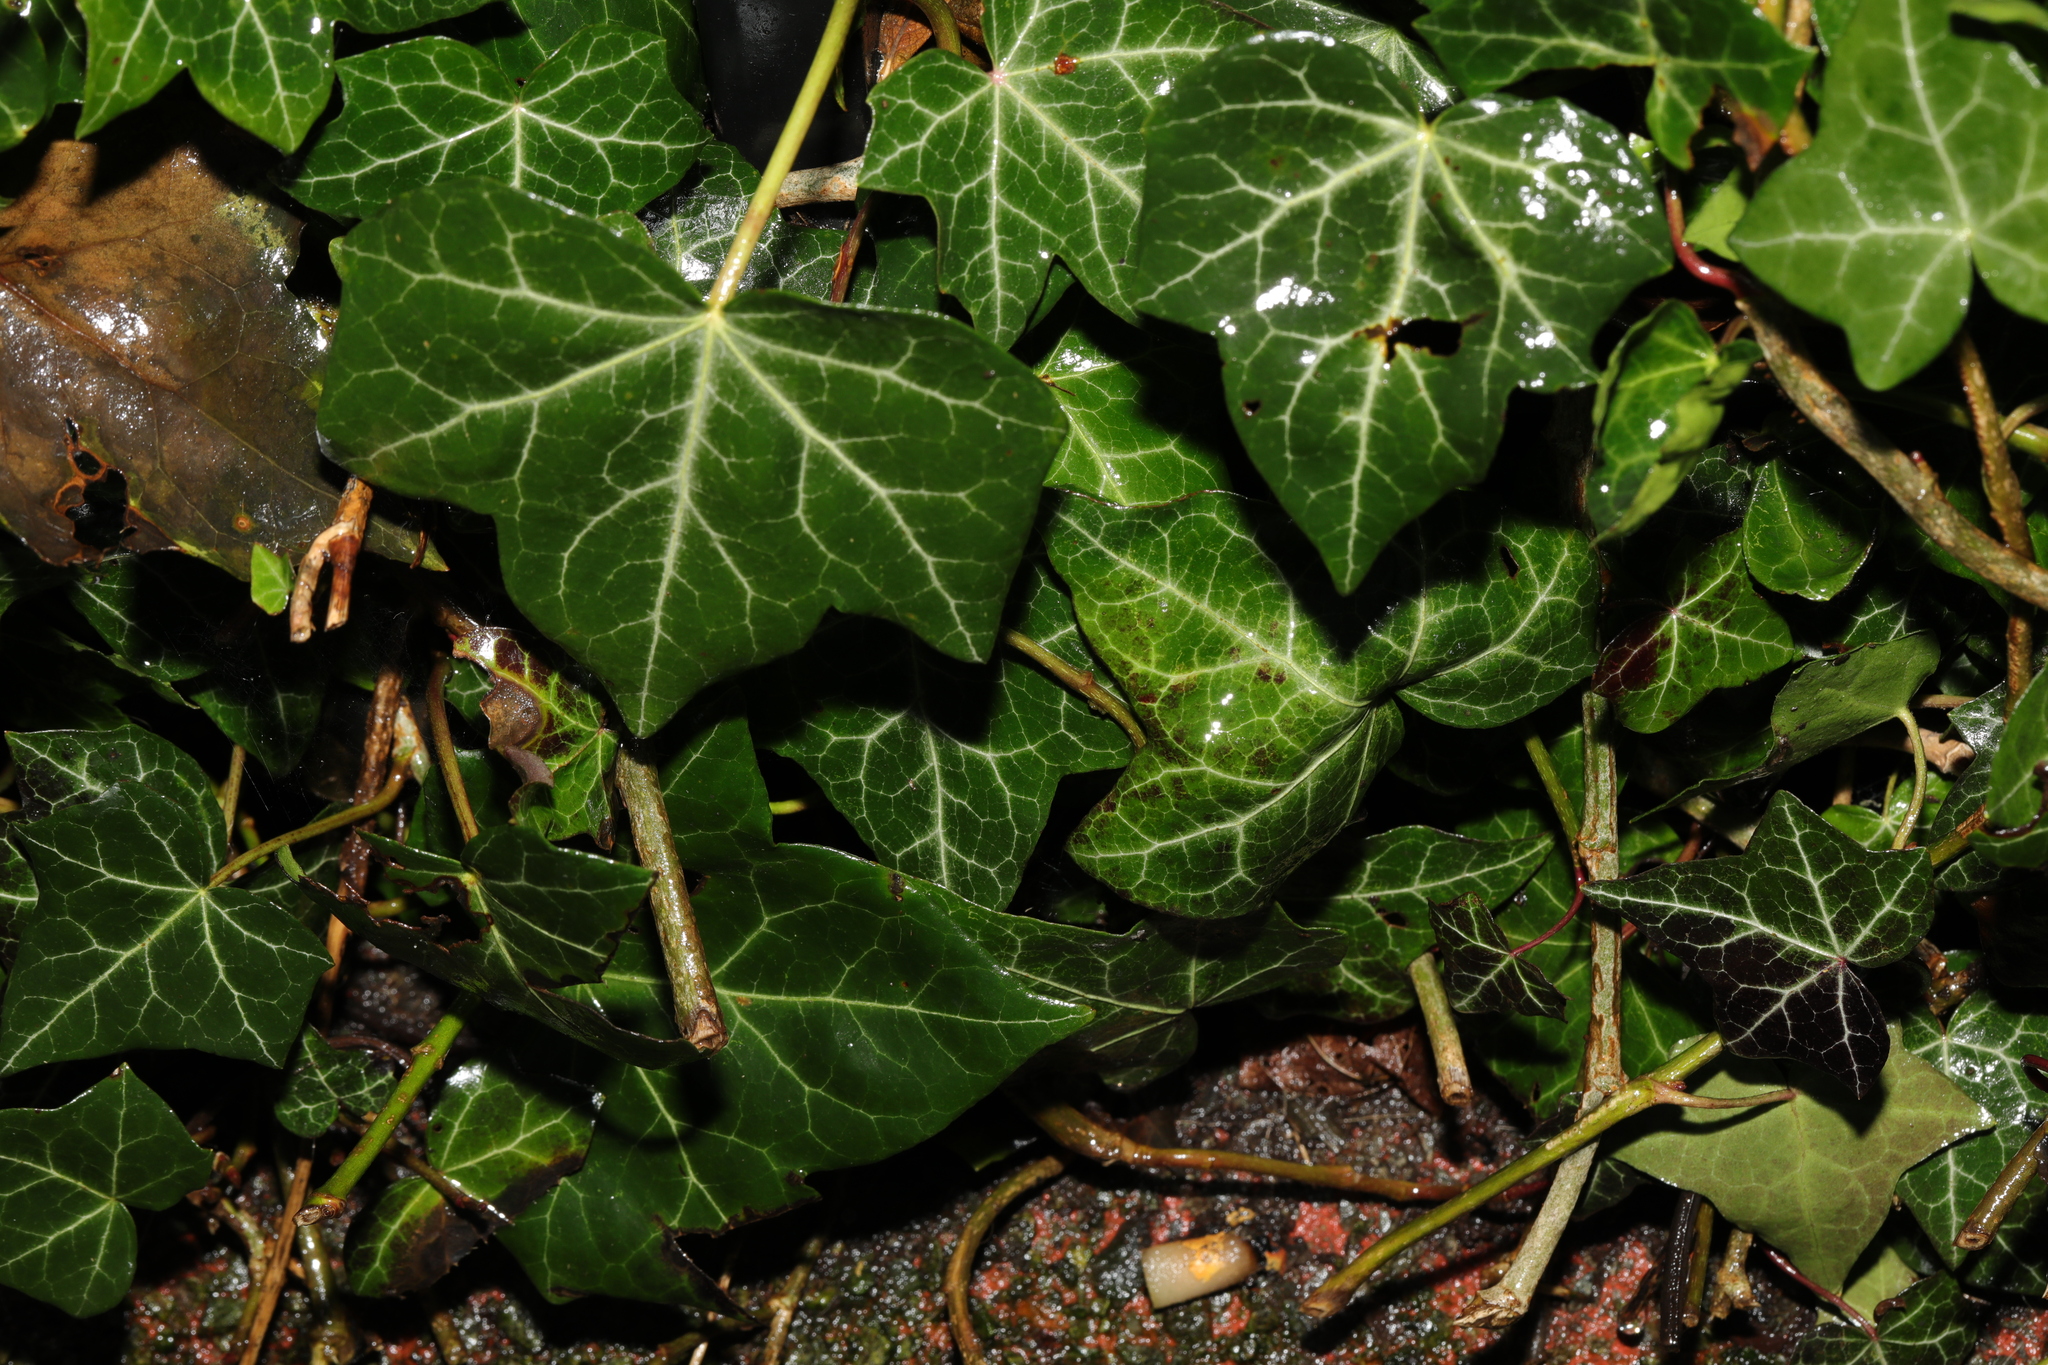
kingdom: Plantae
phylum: Tracheophyta
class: Magnoliopsida
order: Apiales
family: Araliaceae
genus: Hedera
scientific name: Hedera helix
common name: Ivy
